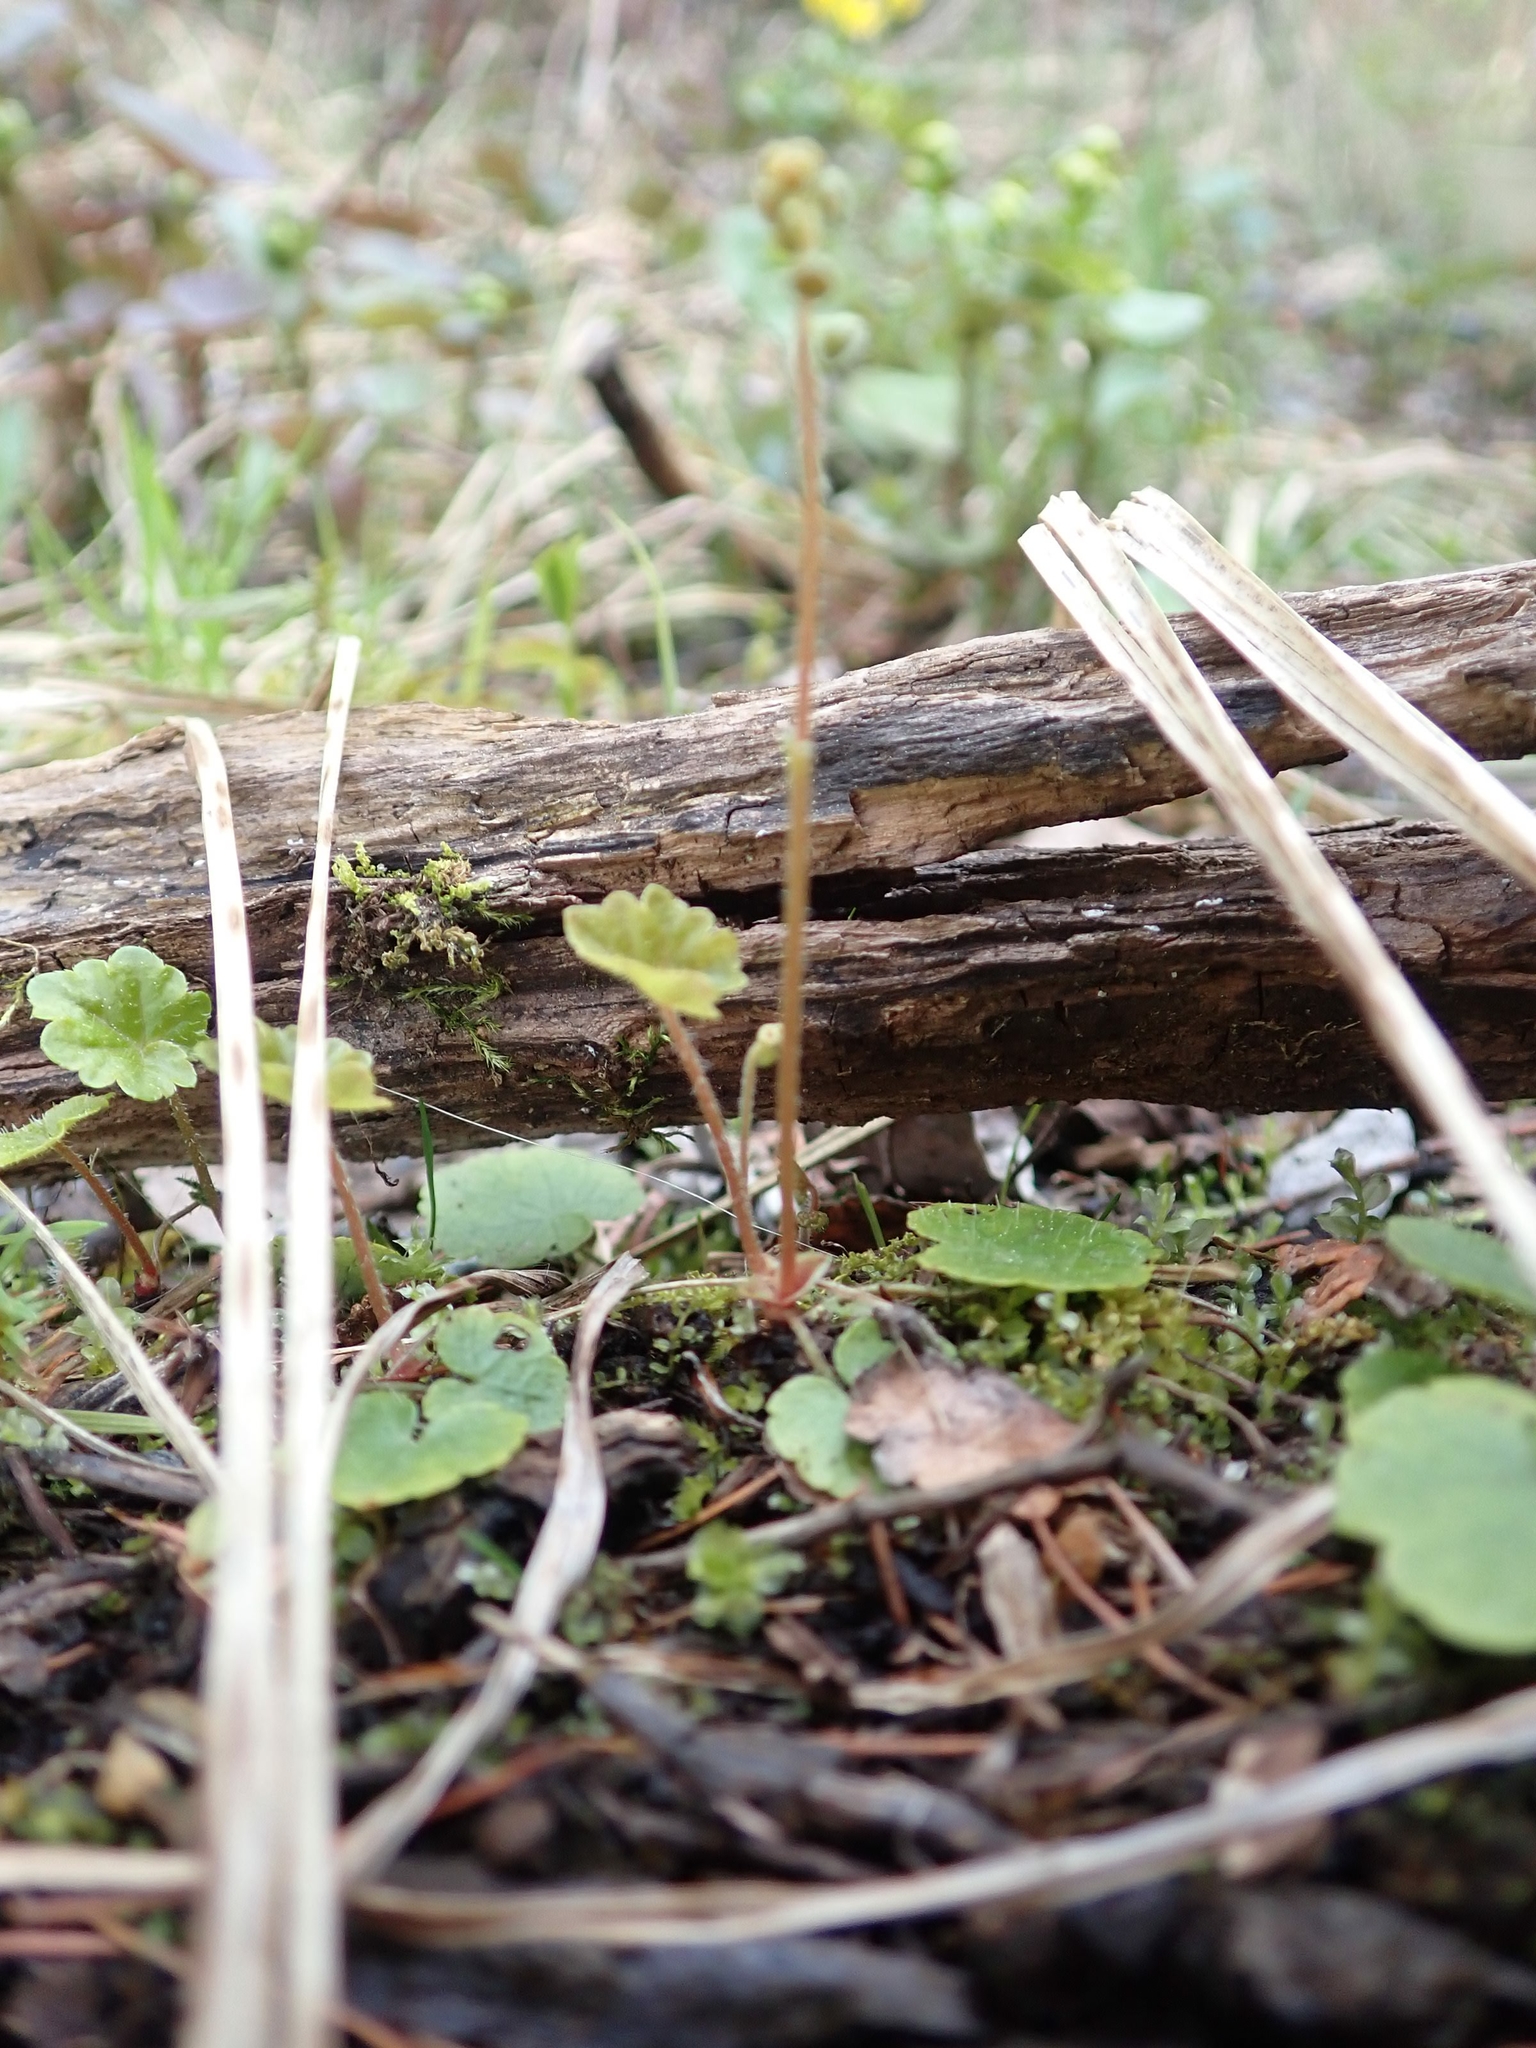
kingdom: Plantae
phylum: Tracheophyta
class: Magnoliopsida
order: Saxifragales
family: Saxifragaceae
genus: Mitella
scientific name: Mitella nuda
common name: Bare-stemmed bishop's-cap
